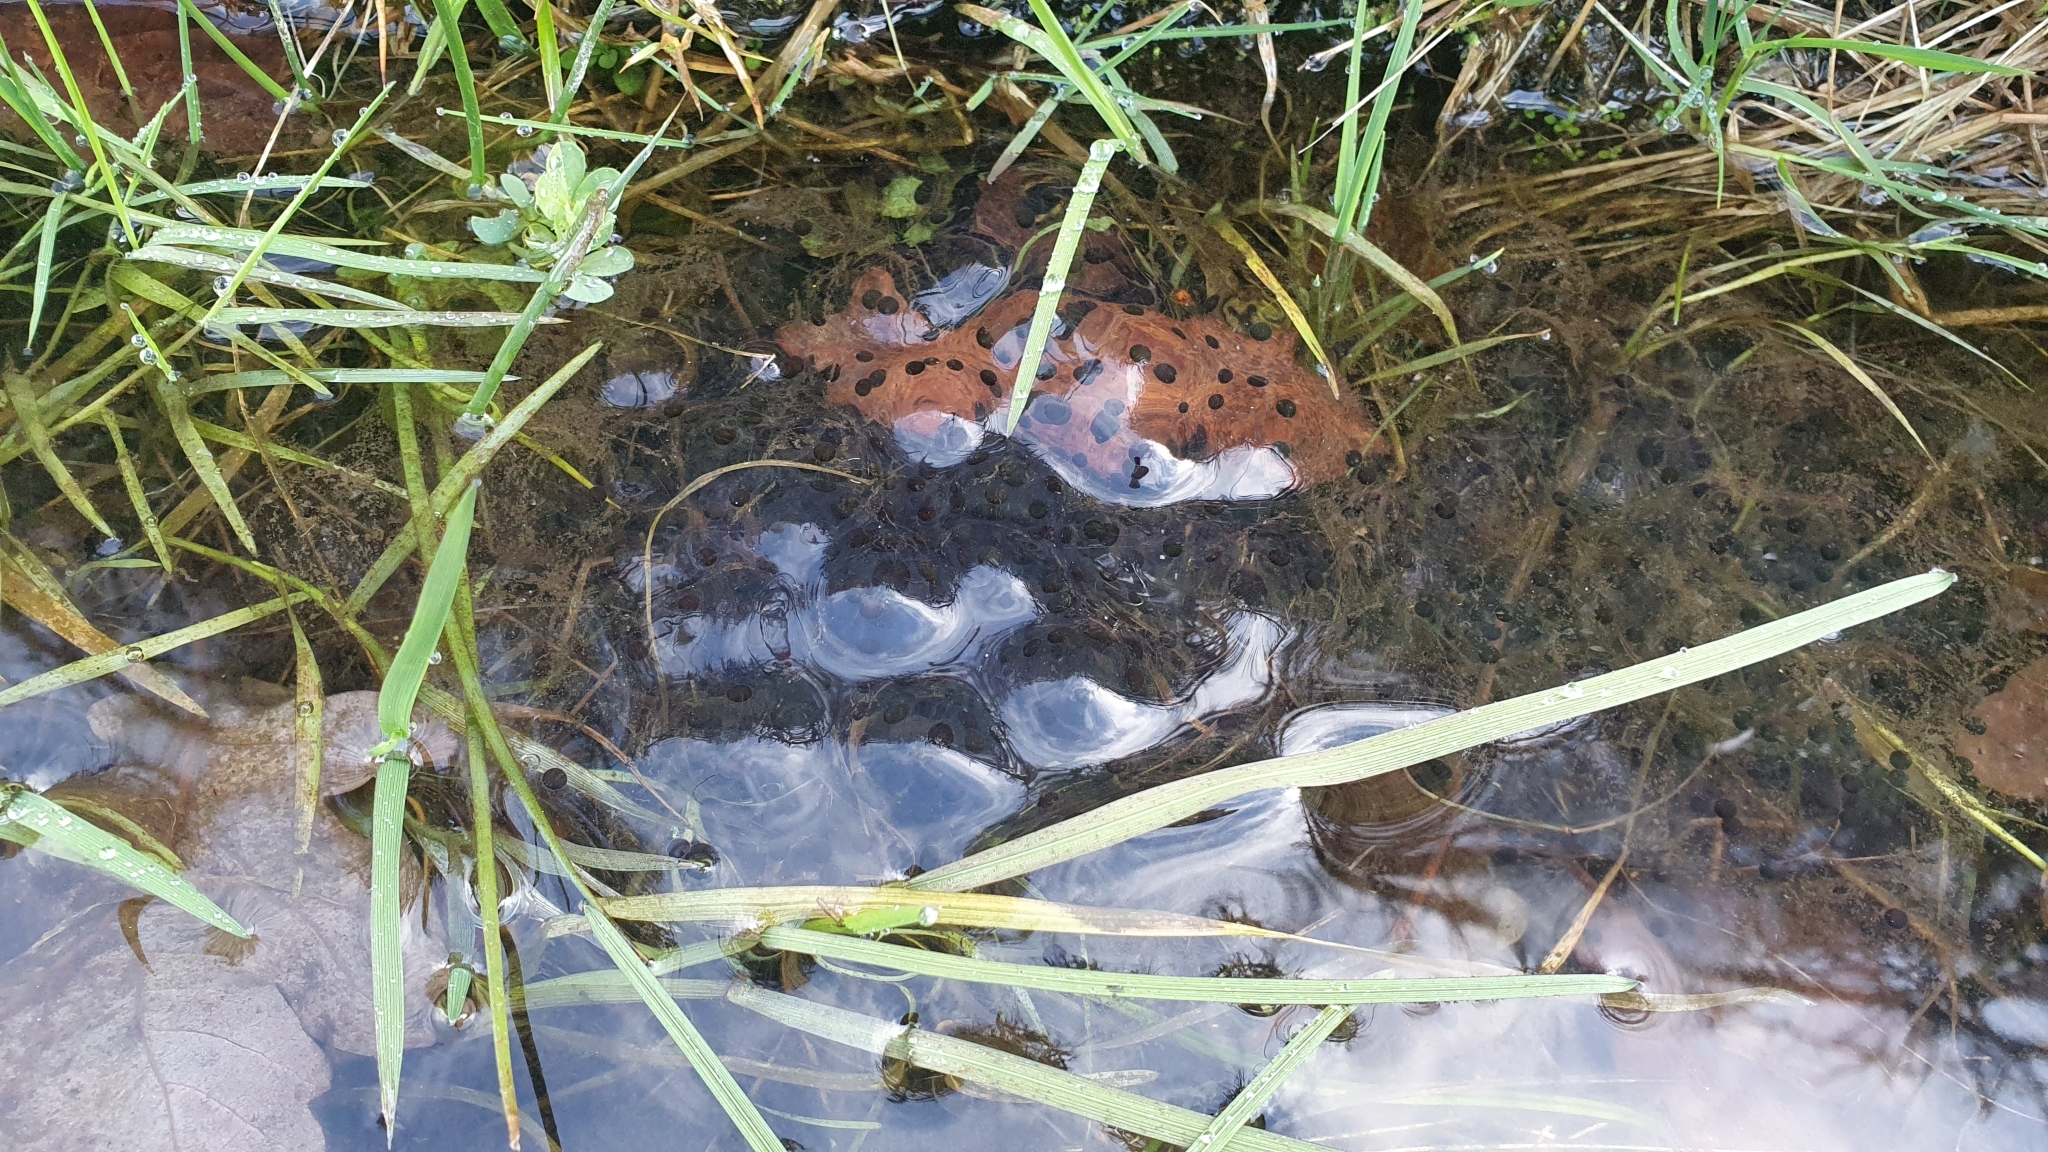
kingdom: Animalia
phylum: Chordata
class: Amphibia
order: Anura
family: Ranidae
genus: Rana
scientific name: Rana temporaria
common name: Common frog
